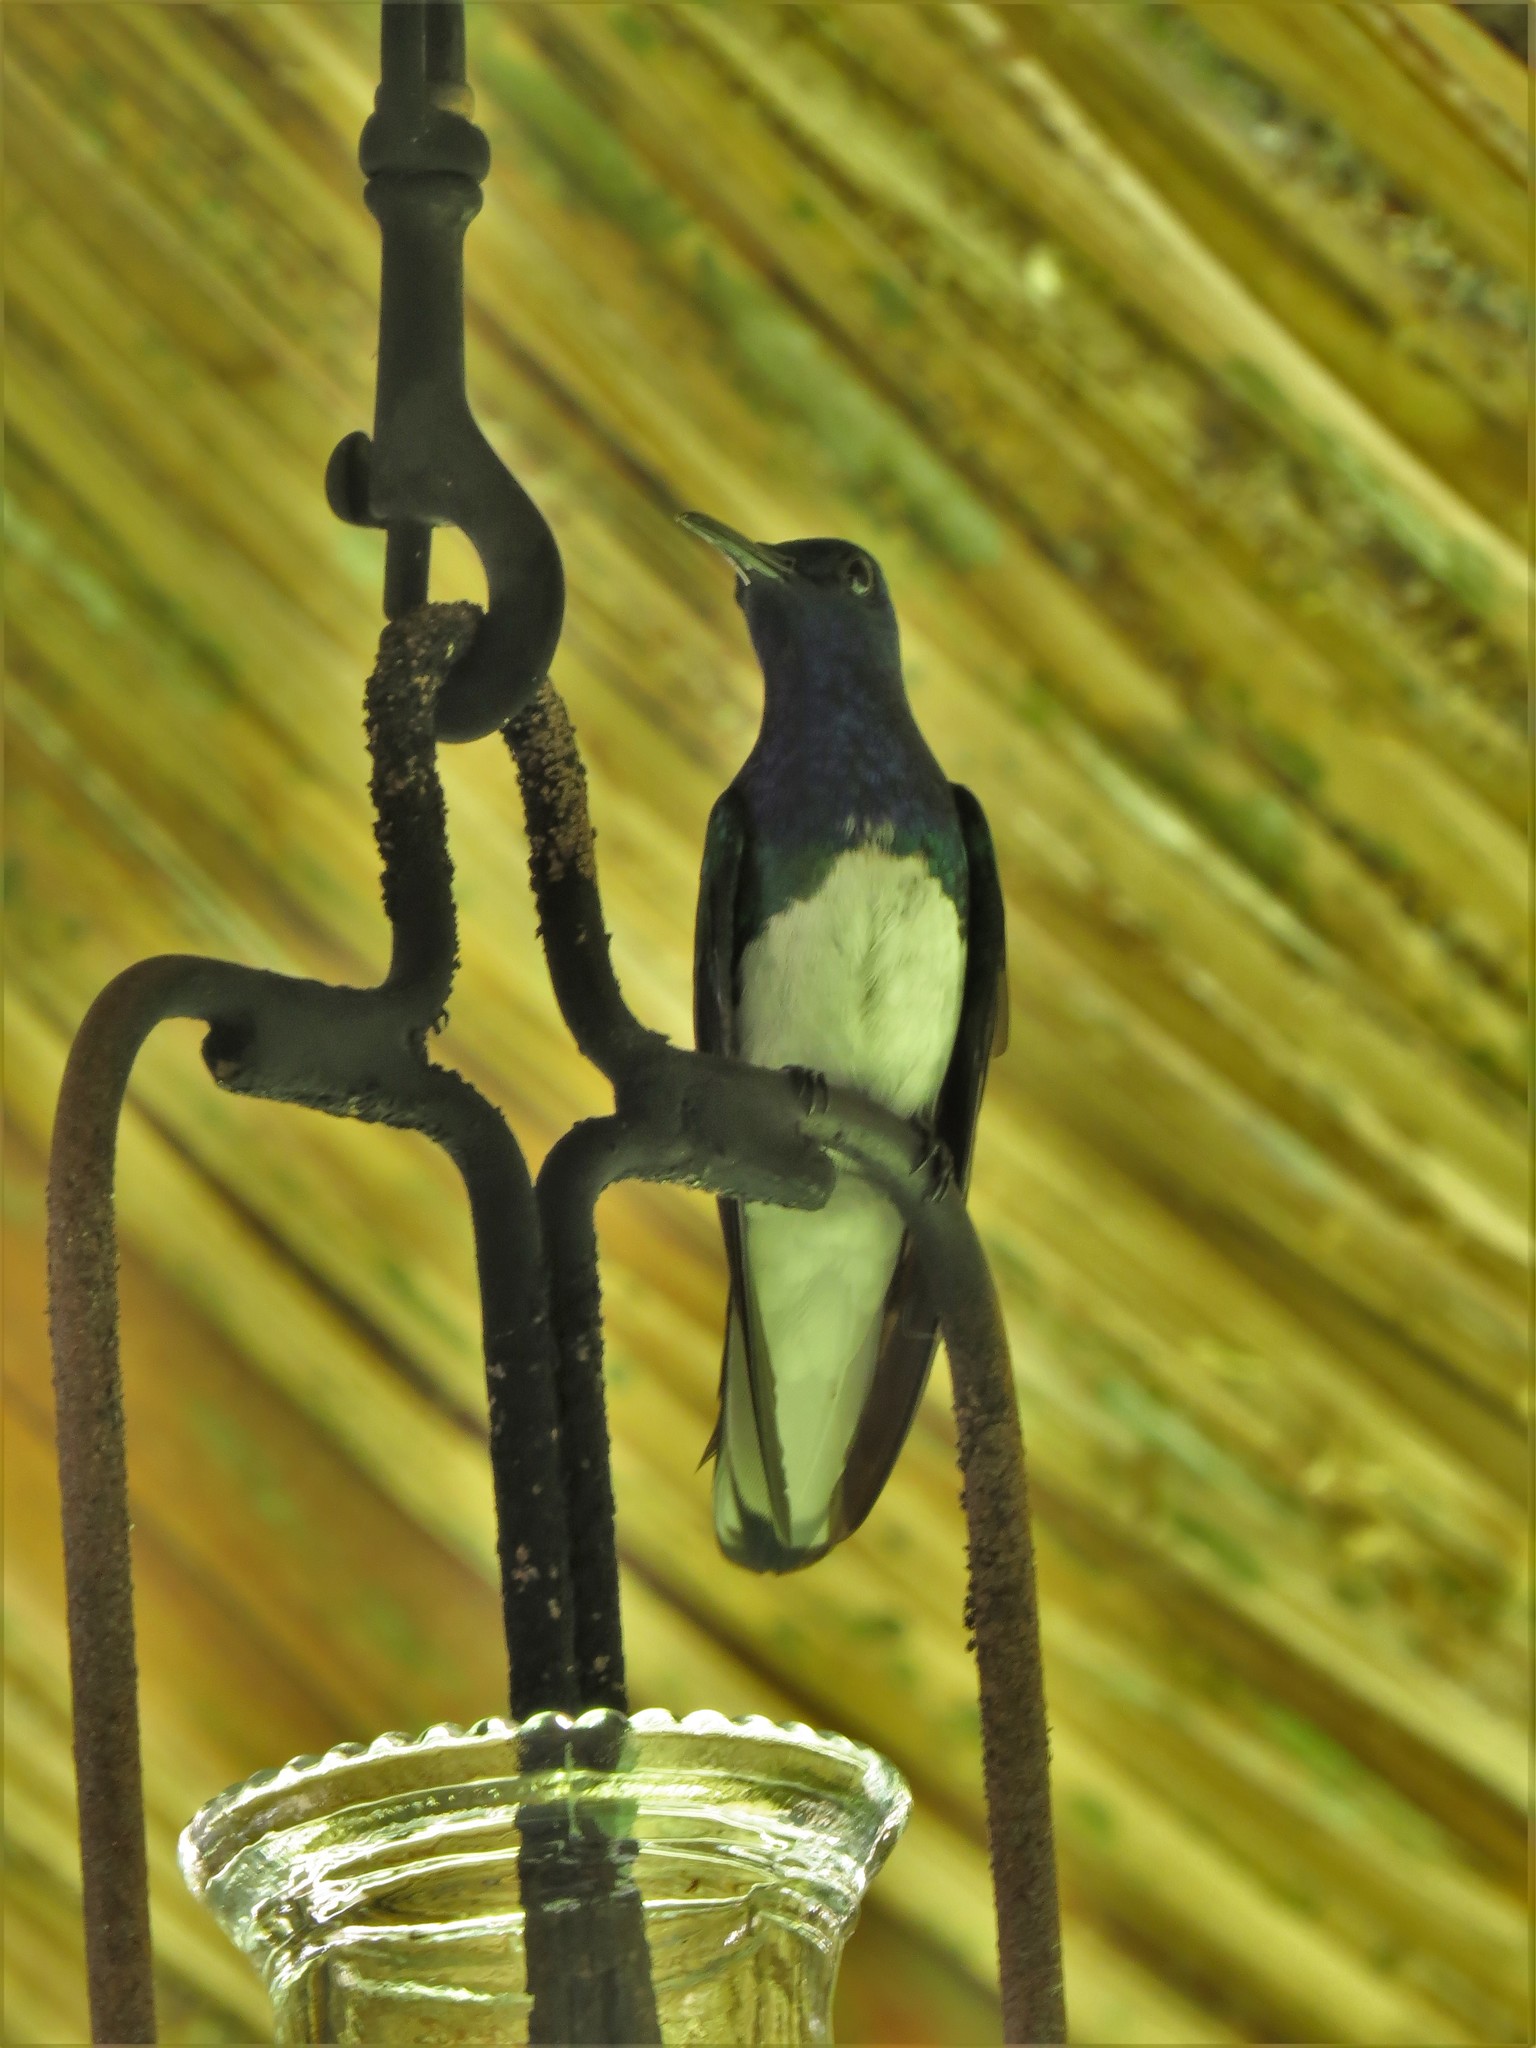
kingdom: Animalia
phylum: Chordata
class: Aves
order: Apodiformes
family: Trochilidae
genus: Florisuga
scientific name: Florisuga mellivora
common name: White-necked jacobin
